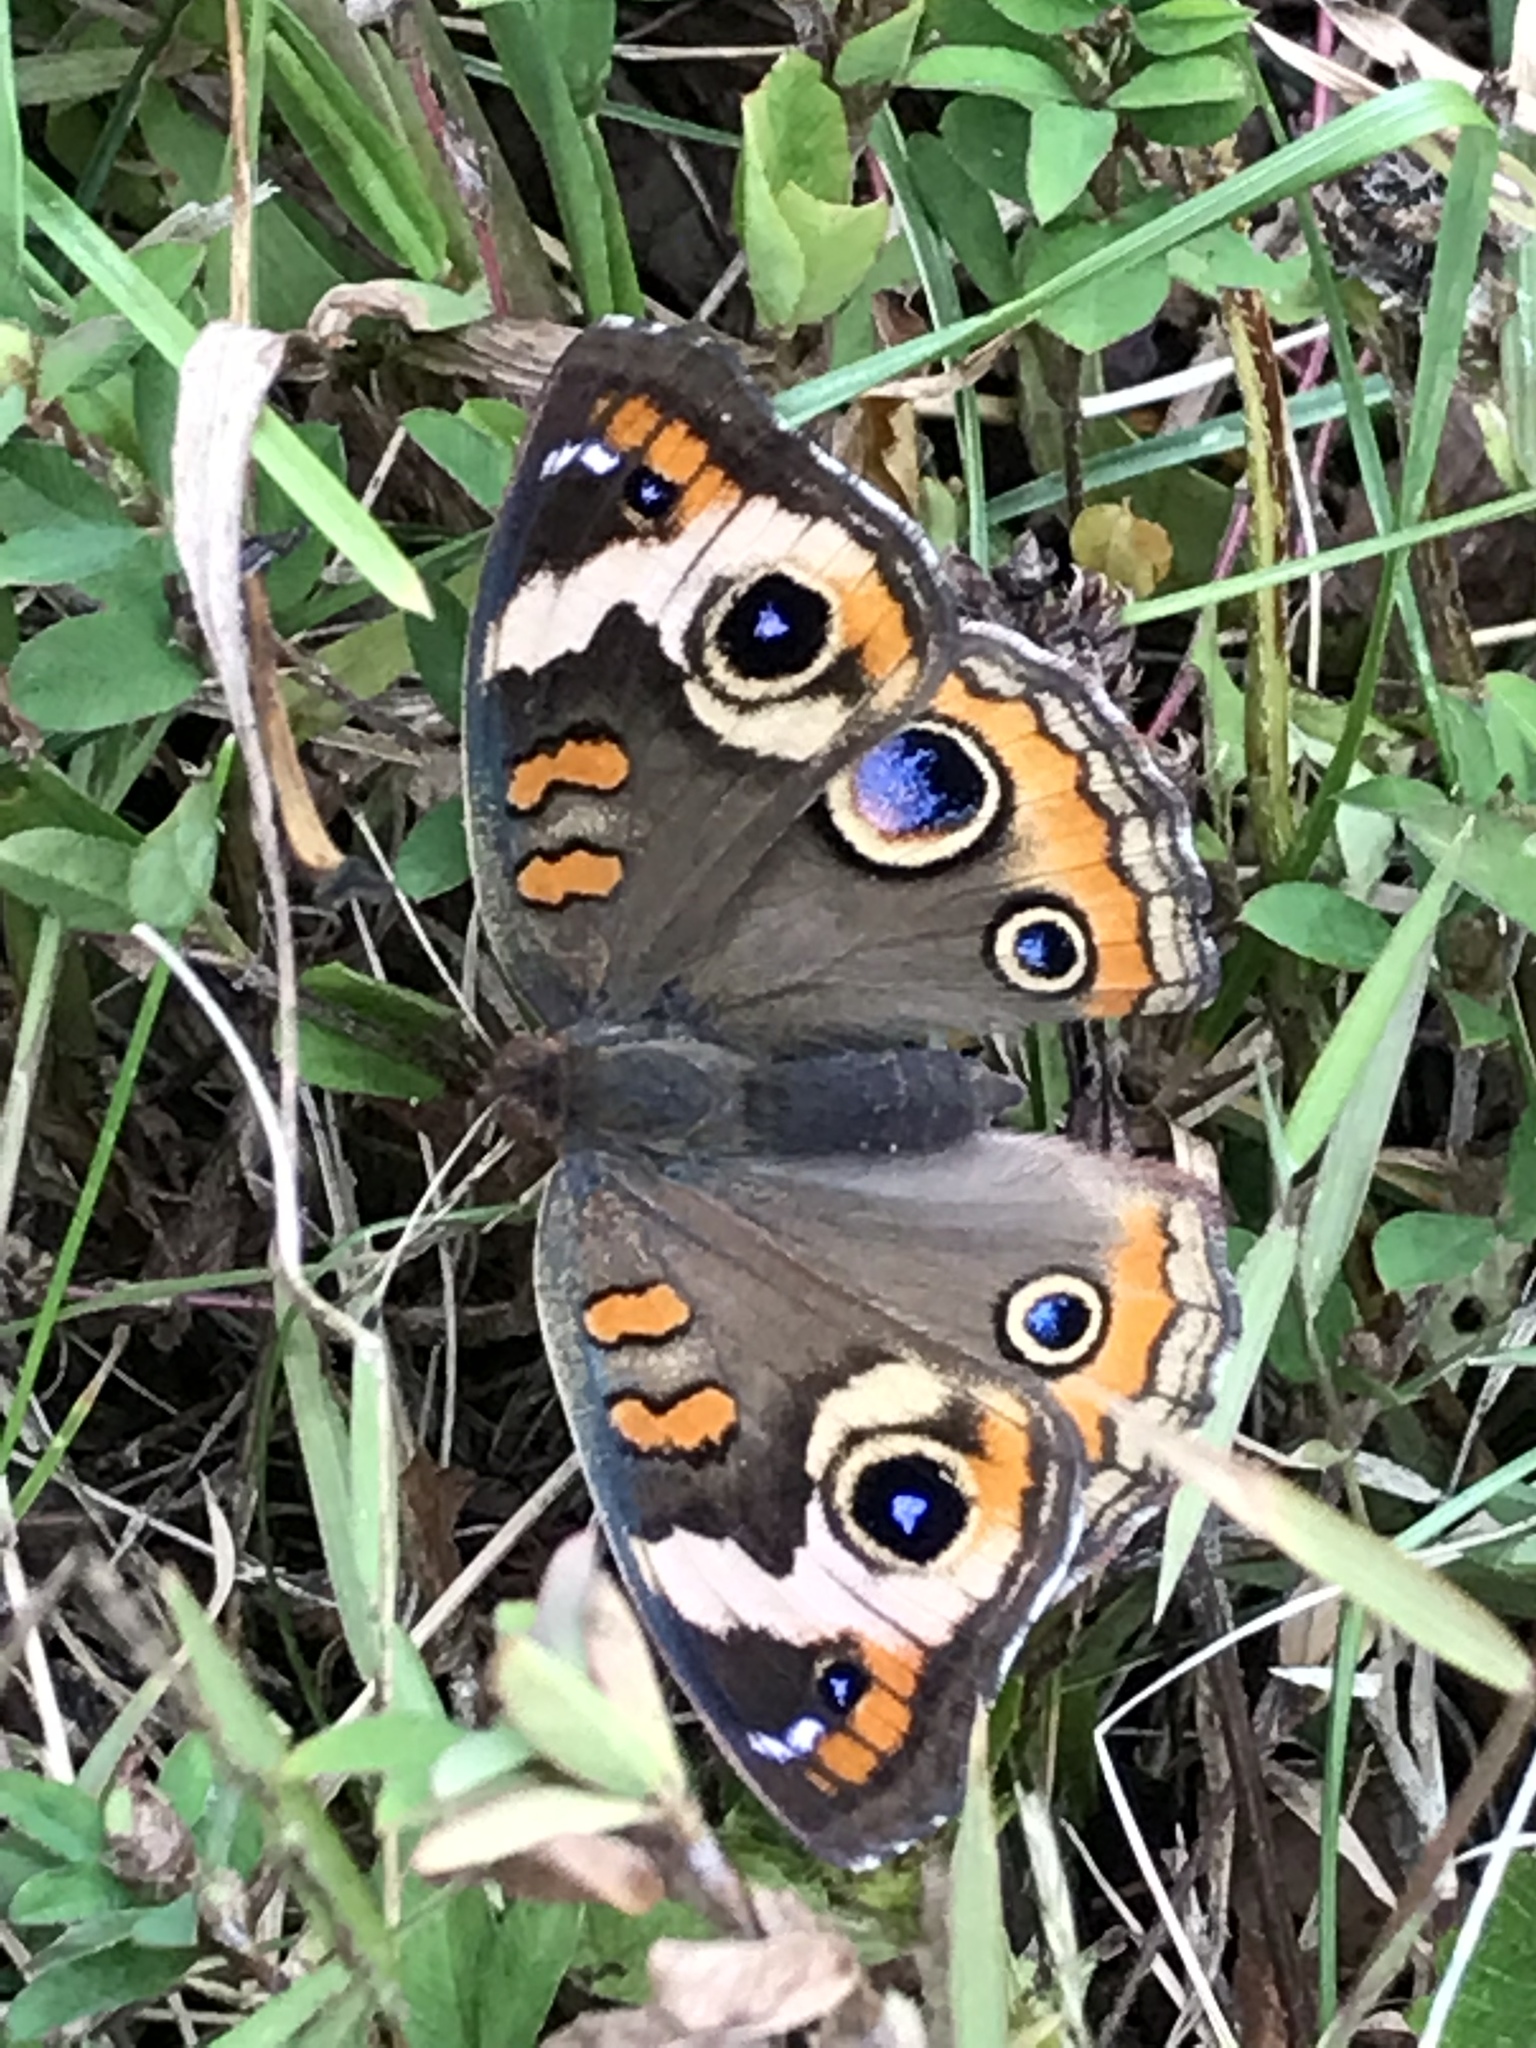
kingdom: Animalia
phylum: Arthropoda
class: Insecta
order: Lepidoptera
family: Nymphalidae
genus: Junonia
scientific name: Junonia coenia
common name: Common buckeye
